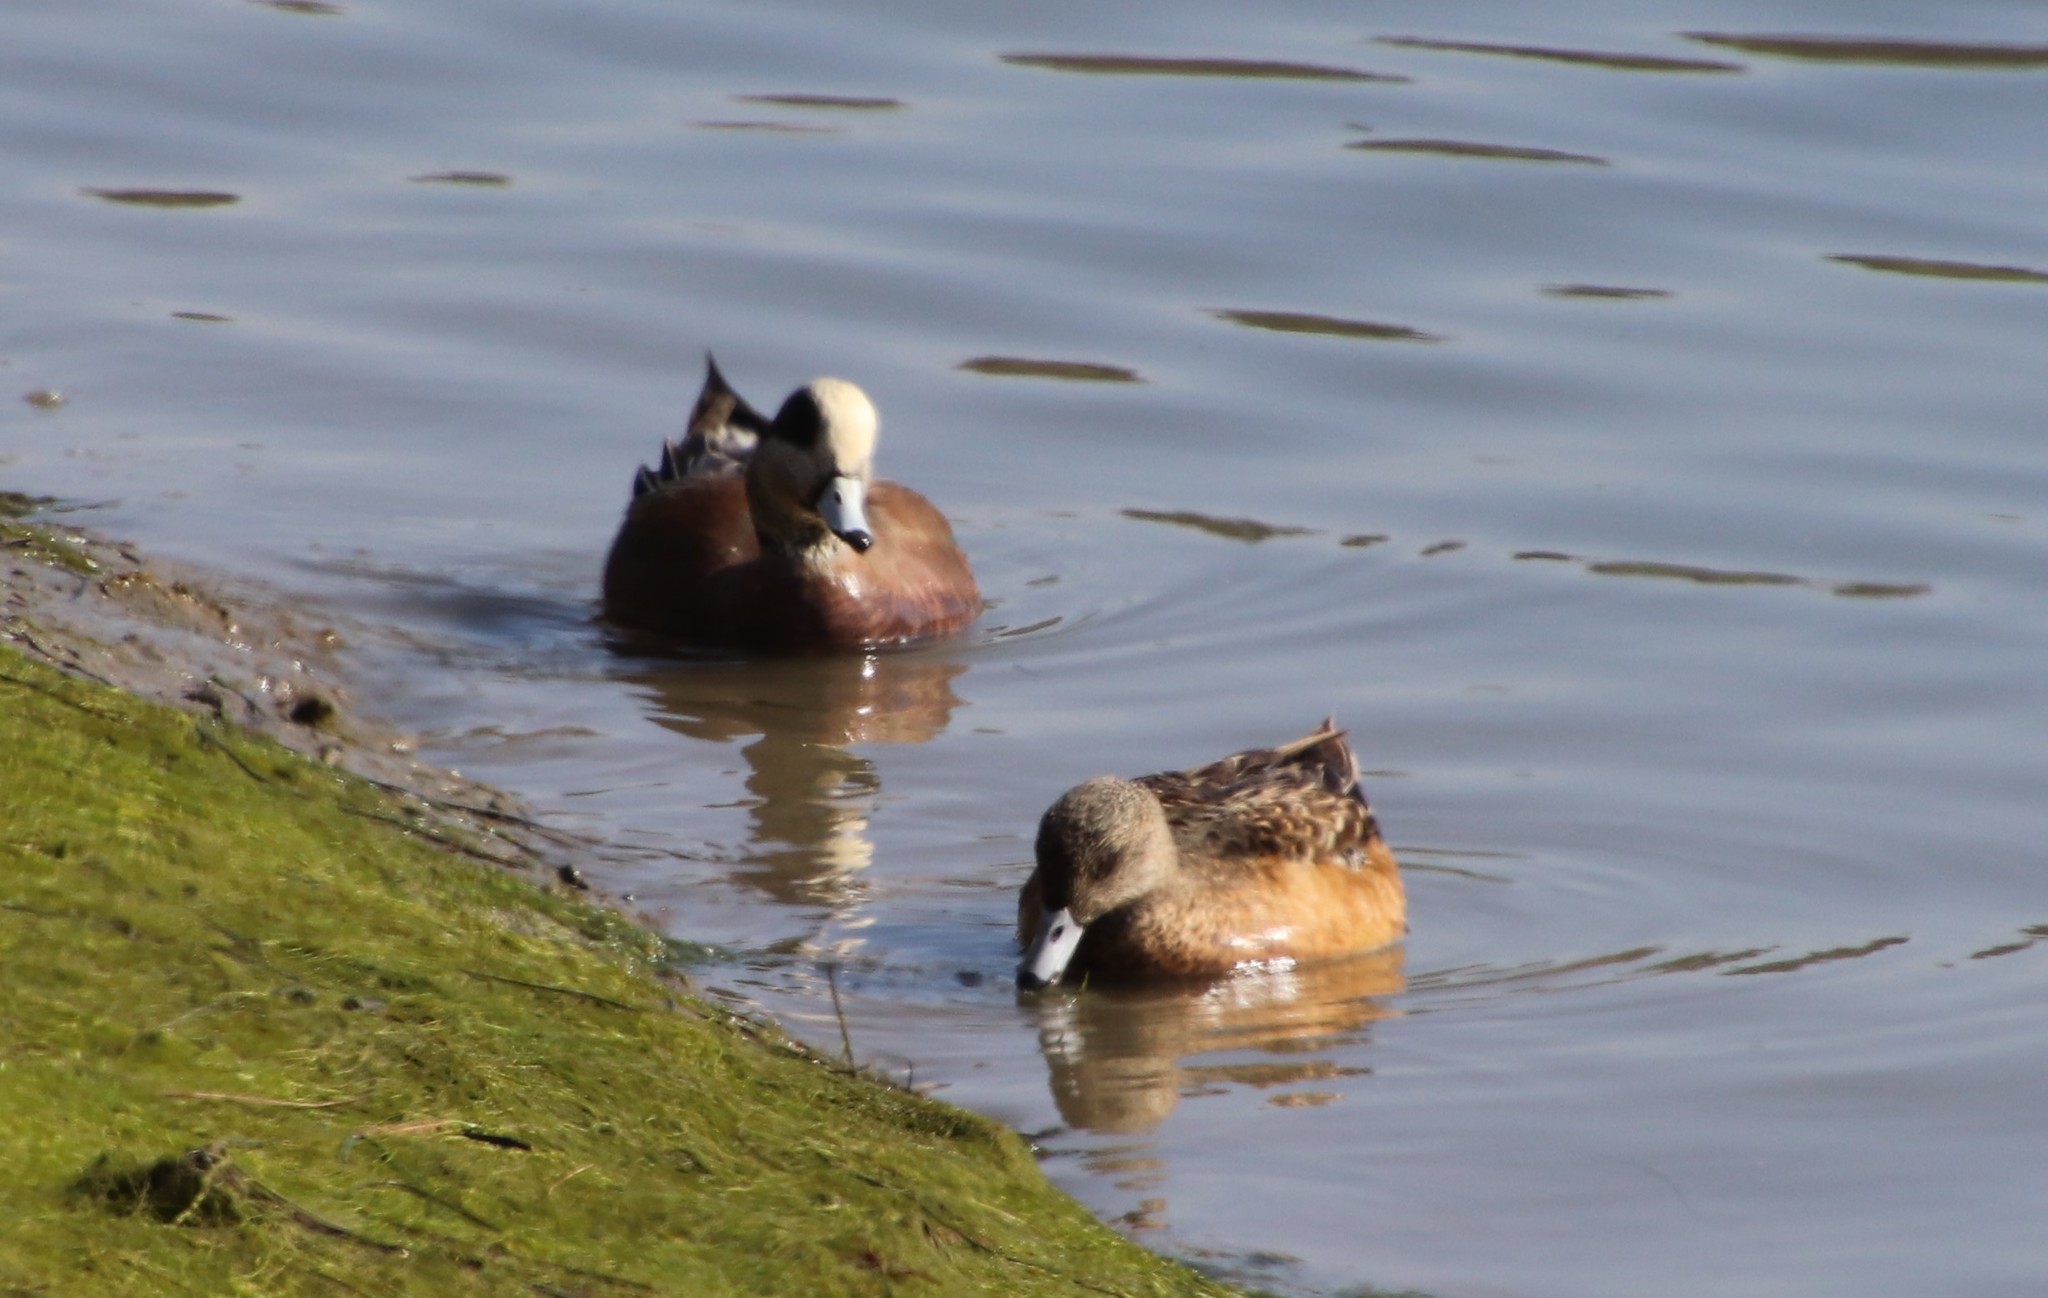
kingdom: Animalia
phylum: Chordata
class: Aves
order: Anseriformes
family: Anatidae
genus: Mareca
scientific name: Mareca americana
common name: American wigeon
